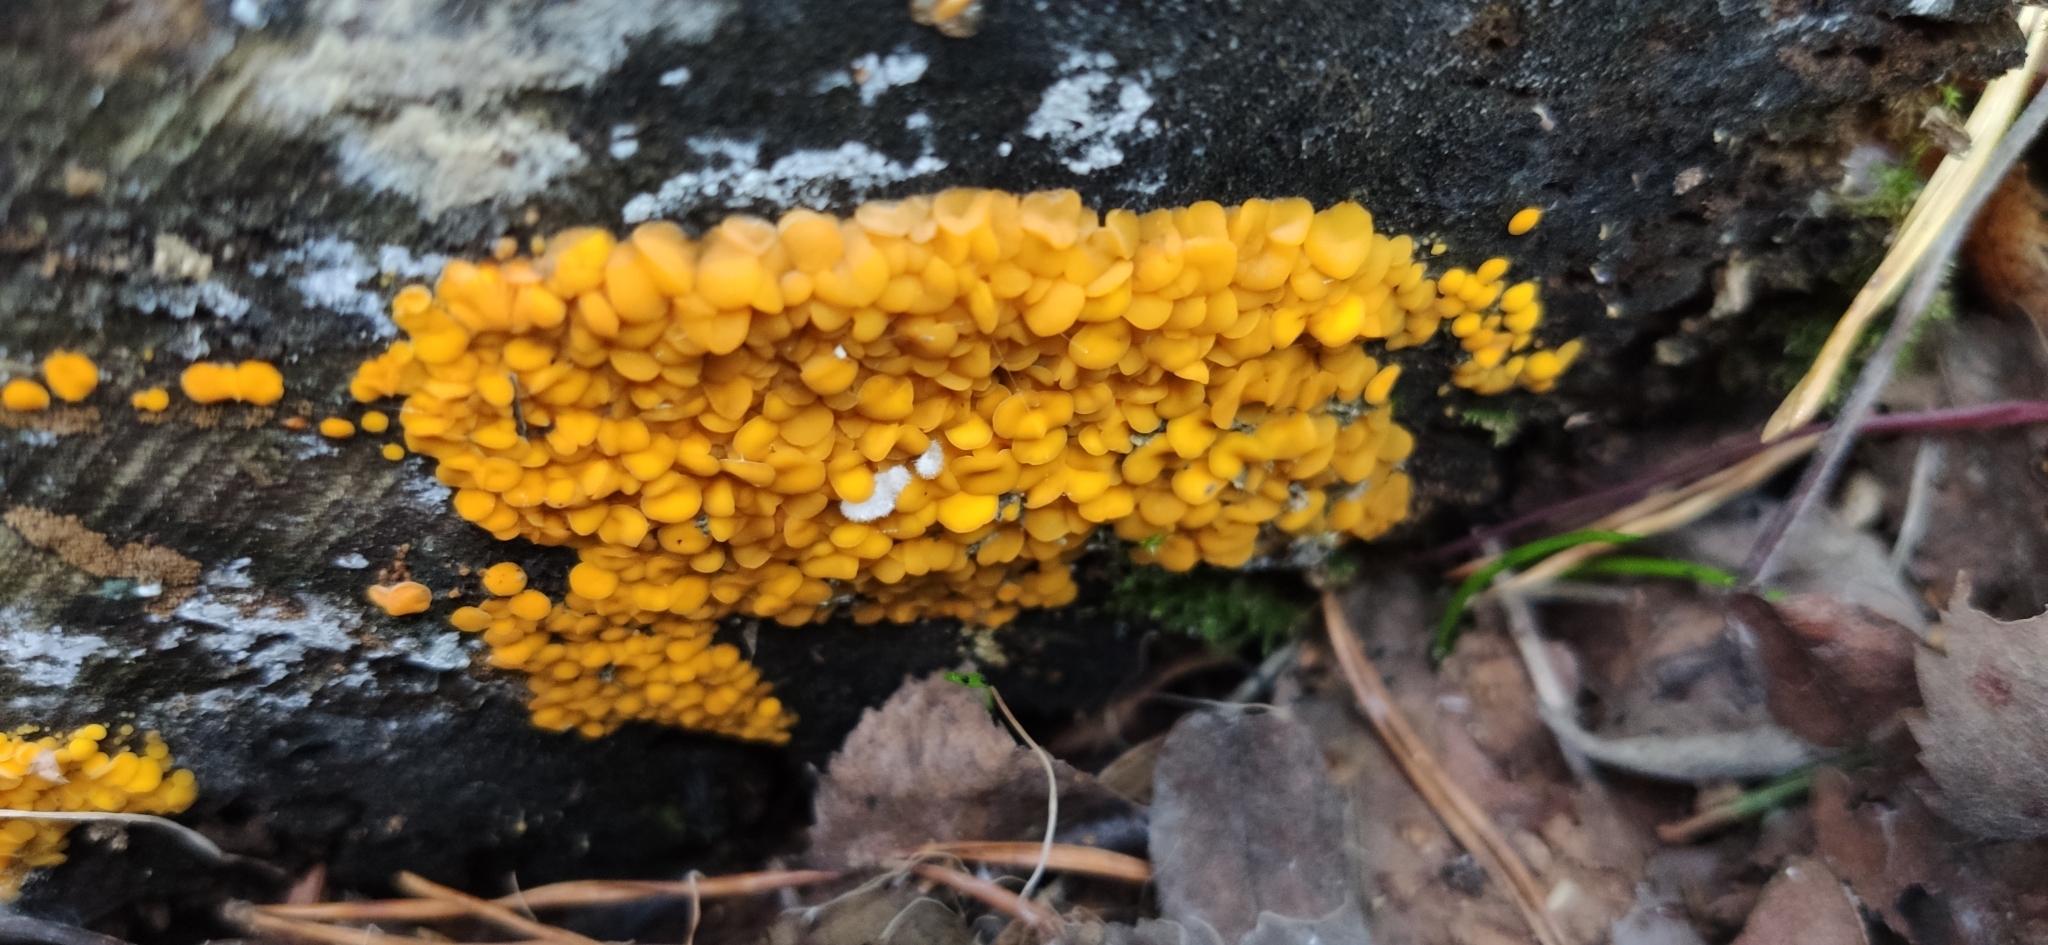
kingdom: Fungi
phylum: Ascomycota
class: Leotiomycetes
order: Helotiales
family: Pezizellaceae
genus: Calycina
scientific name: Calycina citrina
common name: Yellow fairy cups
